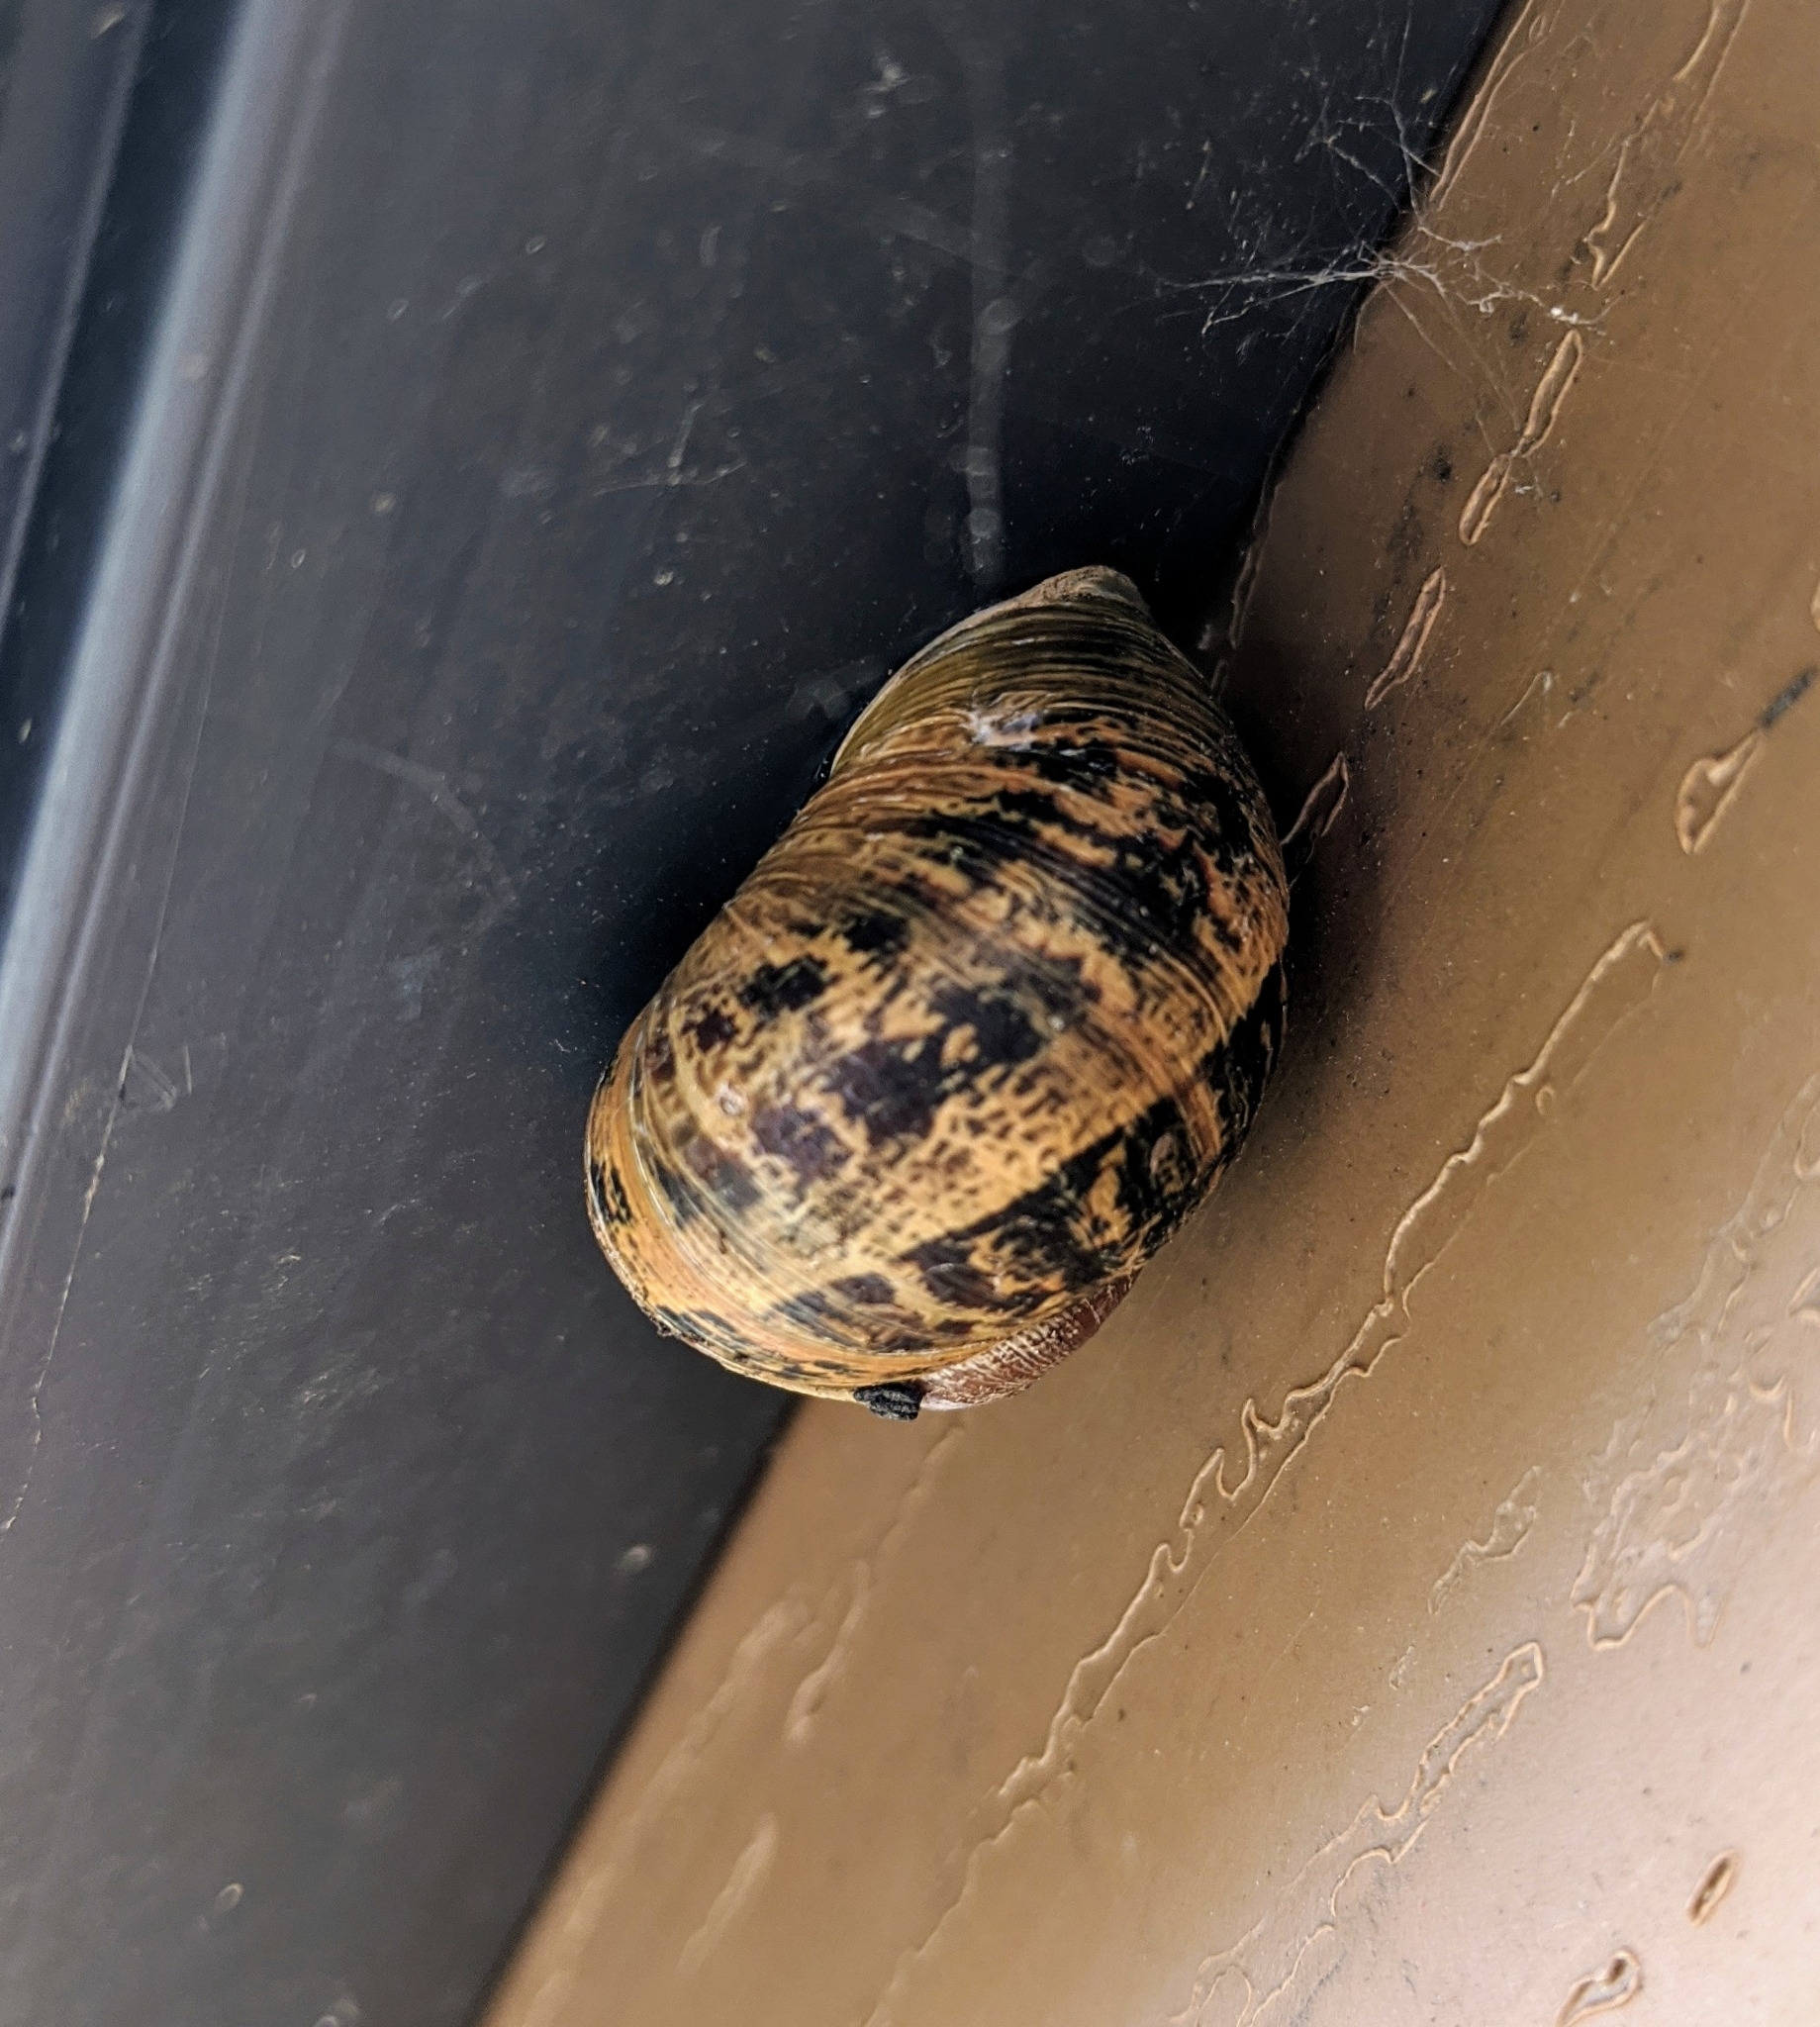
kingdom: Animalia
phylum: Mollusca
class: Gastropoda
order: Stylommatophora
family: Helicidae
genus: Cornu
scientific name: Cornu aspersum
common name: Brown garden snail
